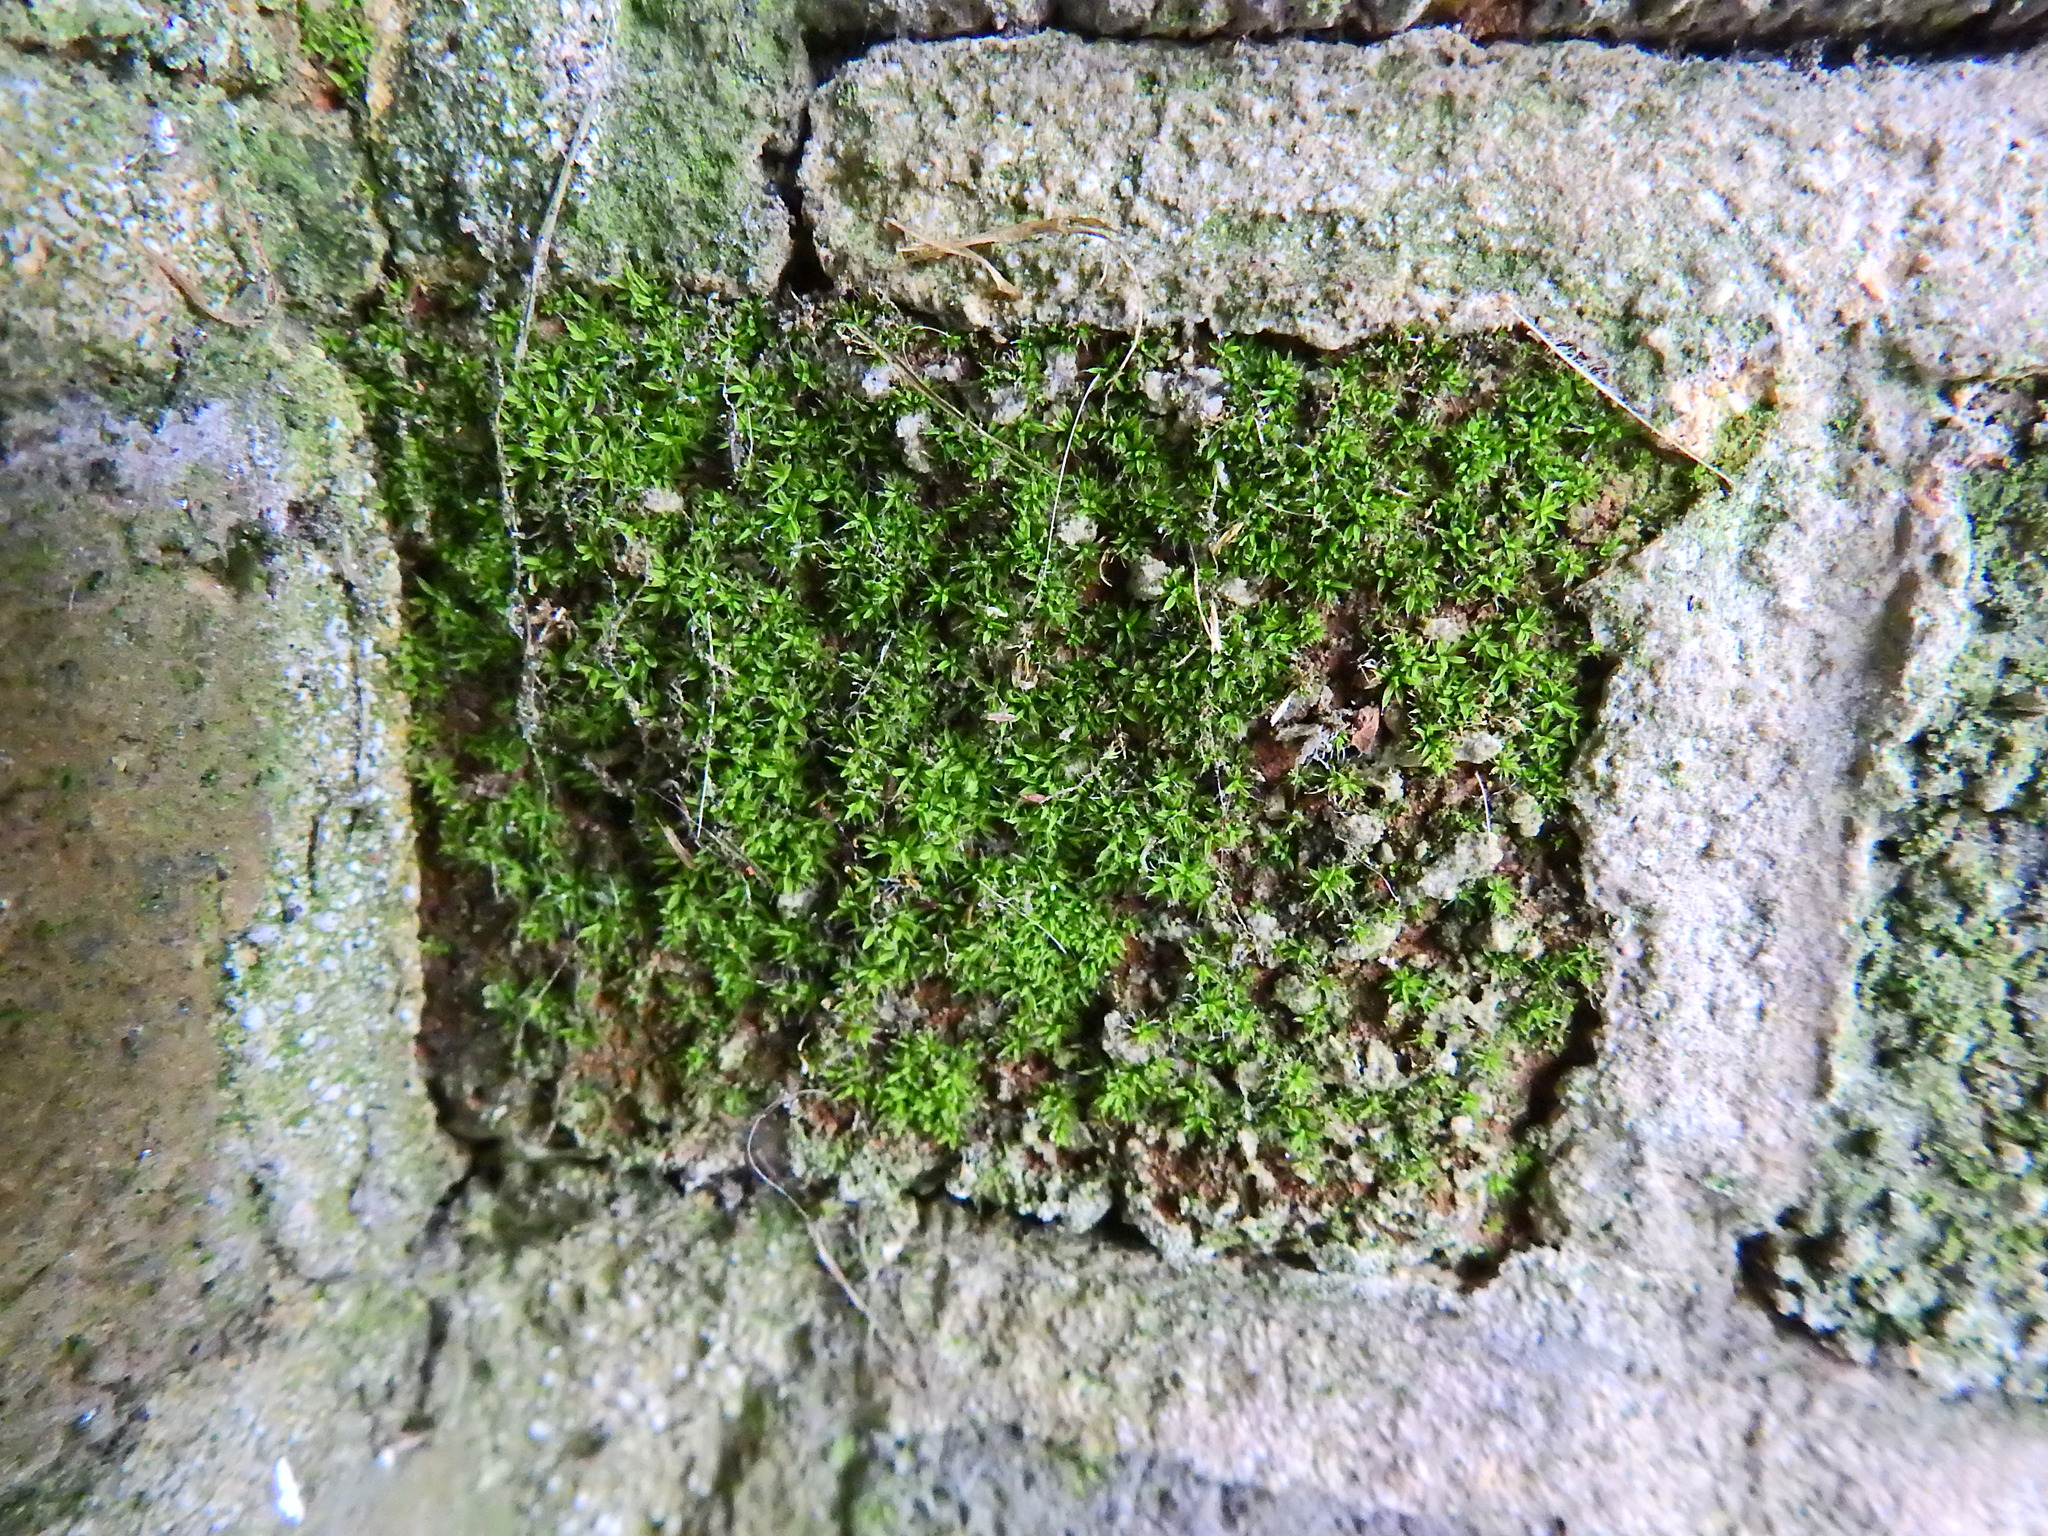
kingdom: Plantae
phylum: Bryophyta
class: Bryopsida
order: Pottiales
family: Pottiaceae
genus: Tortula
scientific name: Tortula muralis
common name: Wall screw-moss
